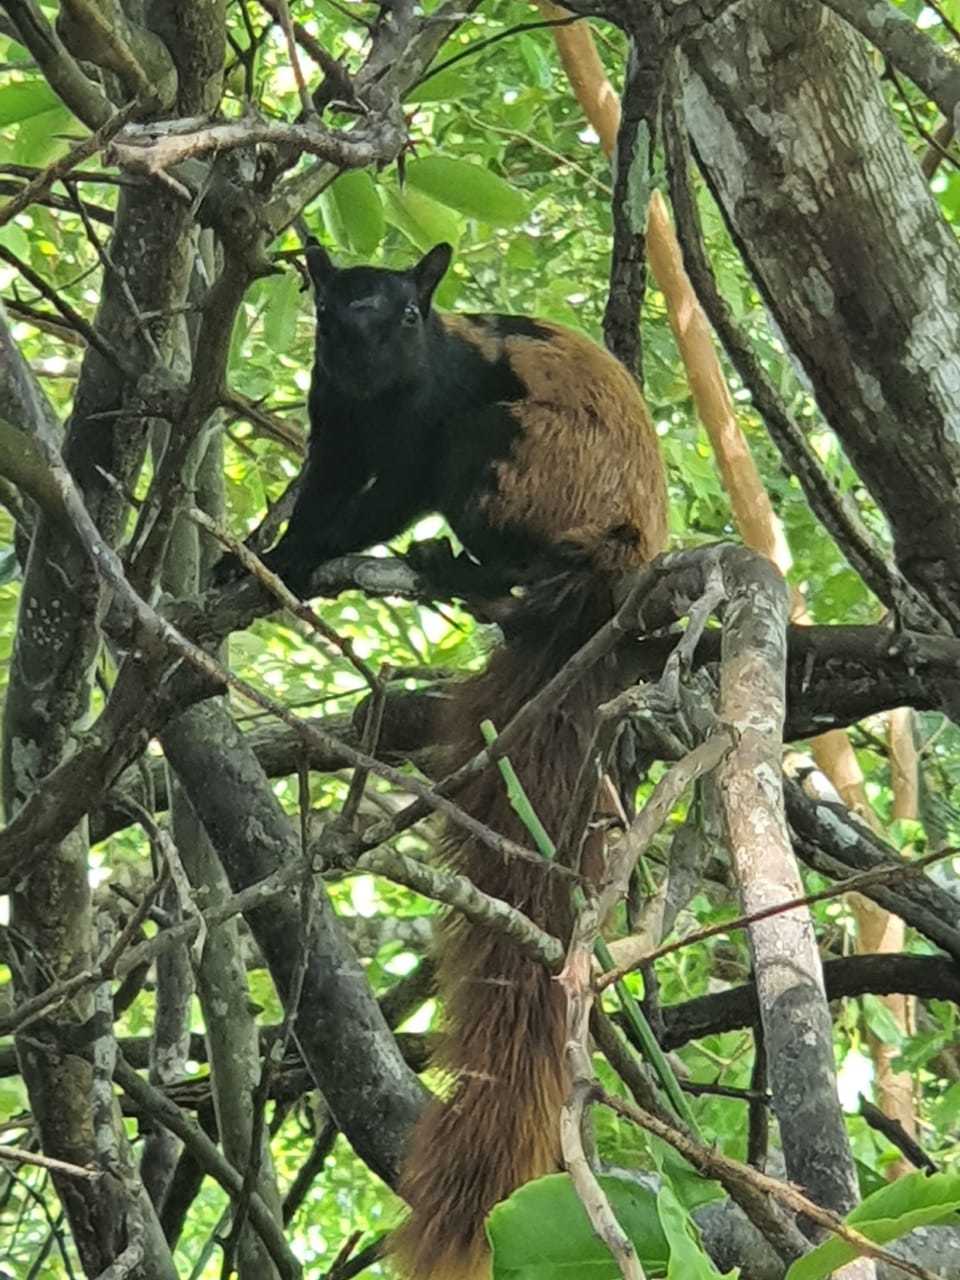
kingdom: Animalia
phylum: Chordata
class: Mammalia
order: Rodentia
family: Sciuridae
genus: Sciurus
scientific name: Sciurus variegatoides
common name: Variegated squirrel
